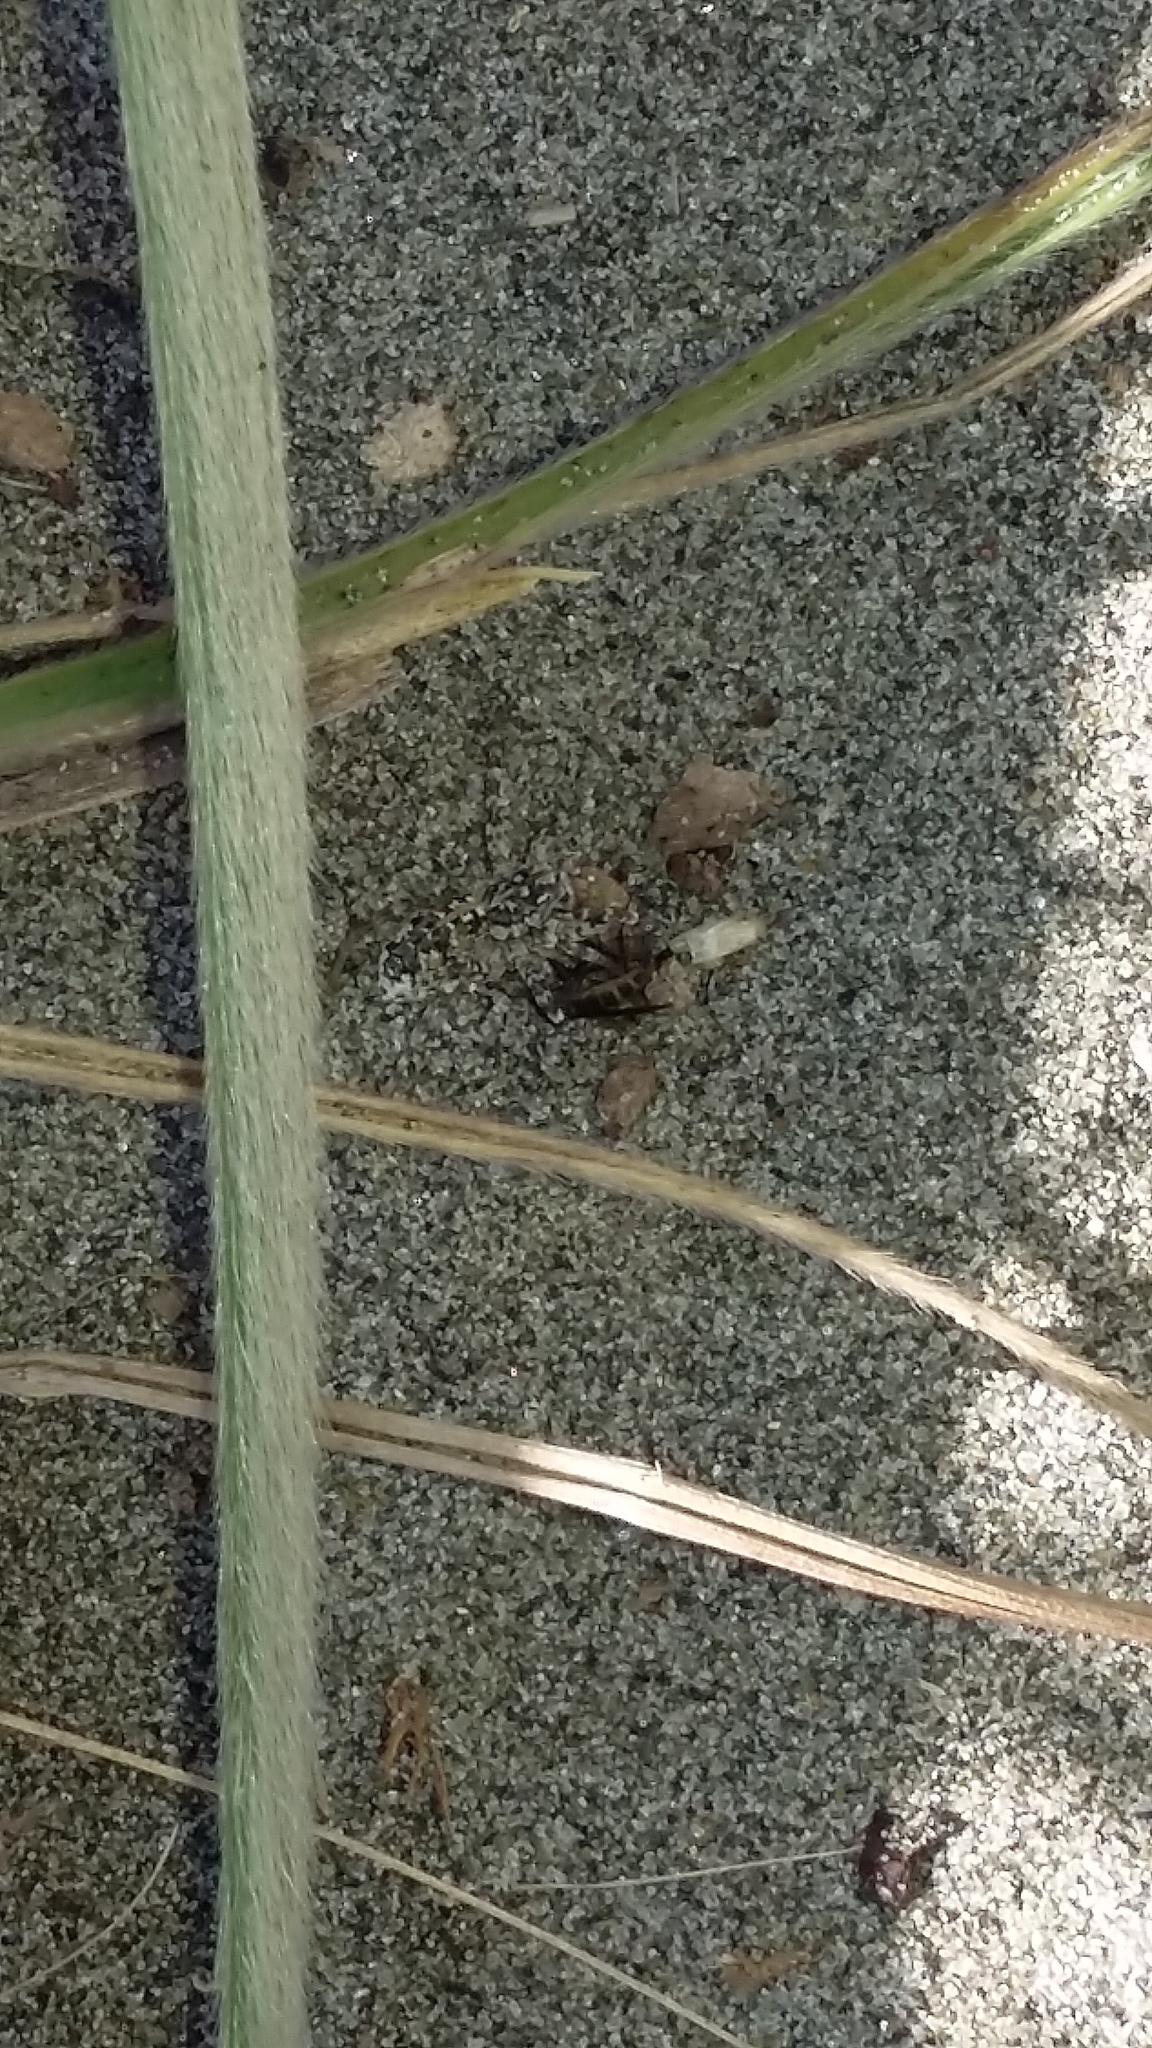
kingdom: Animalia
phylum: Arthropoda
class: Arachnida
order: Araneae
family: Lycosidae
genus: Anoteropsis
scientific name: Anoteropsis litoralis
